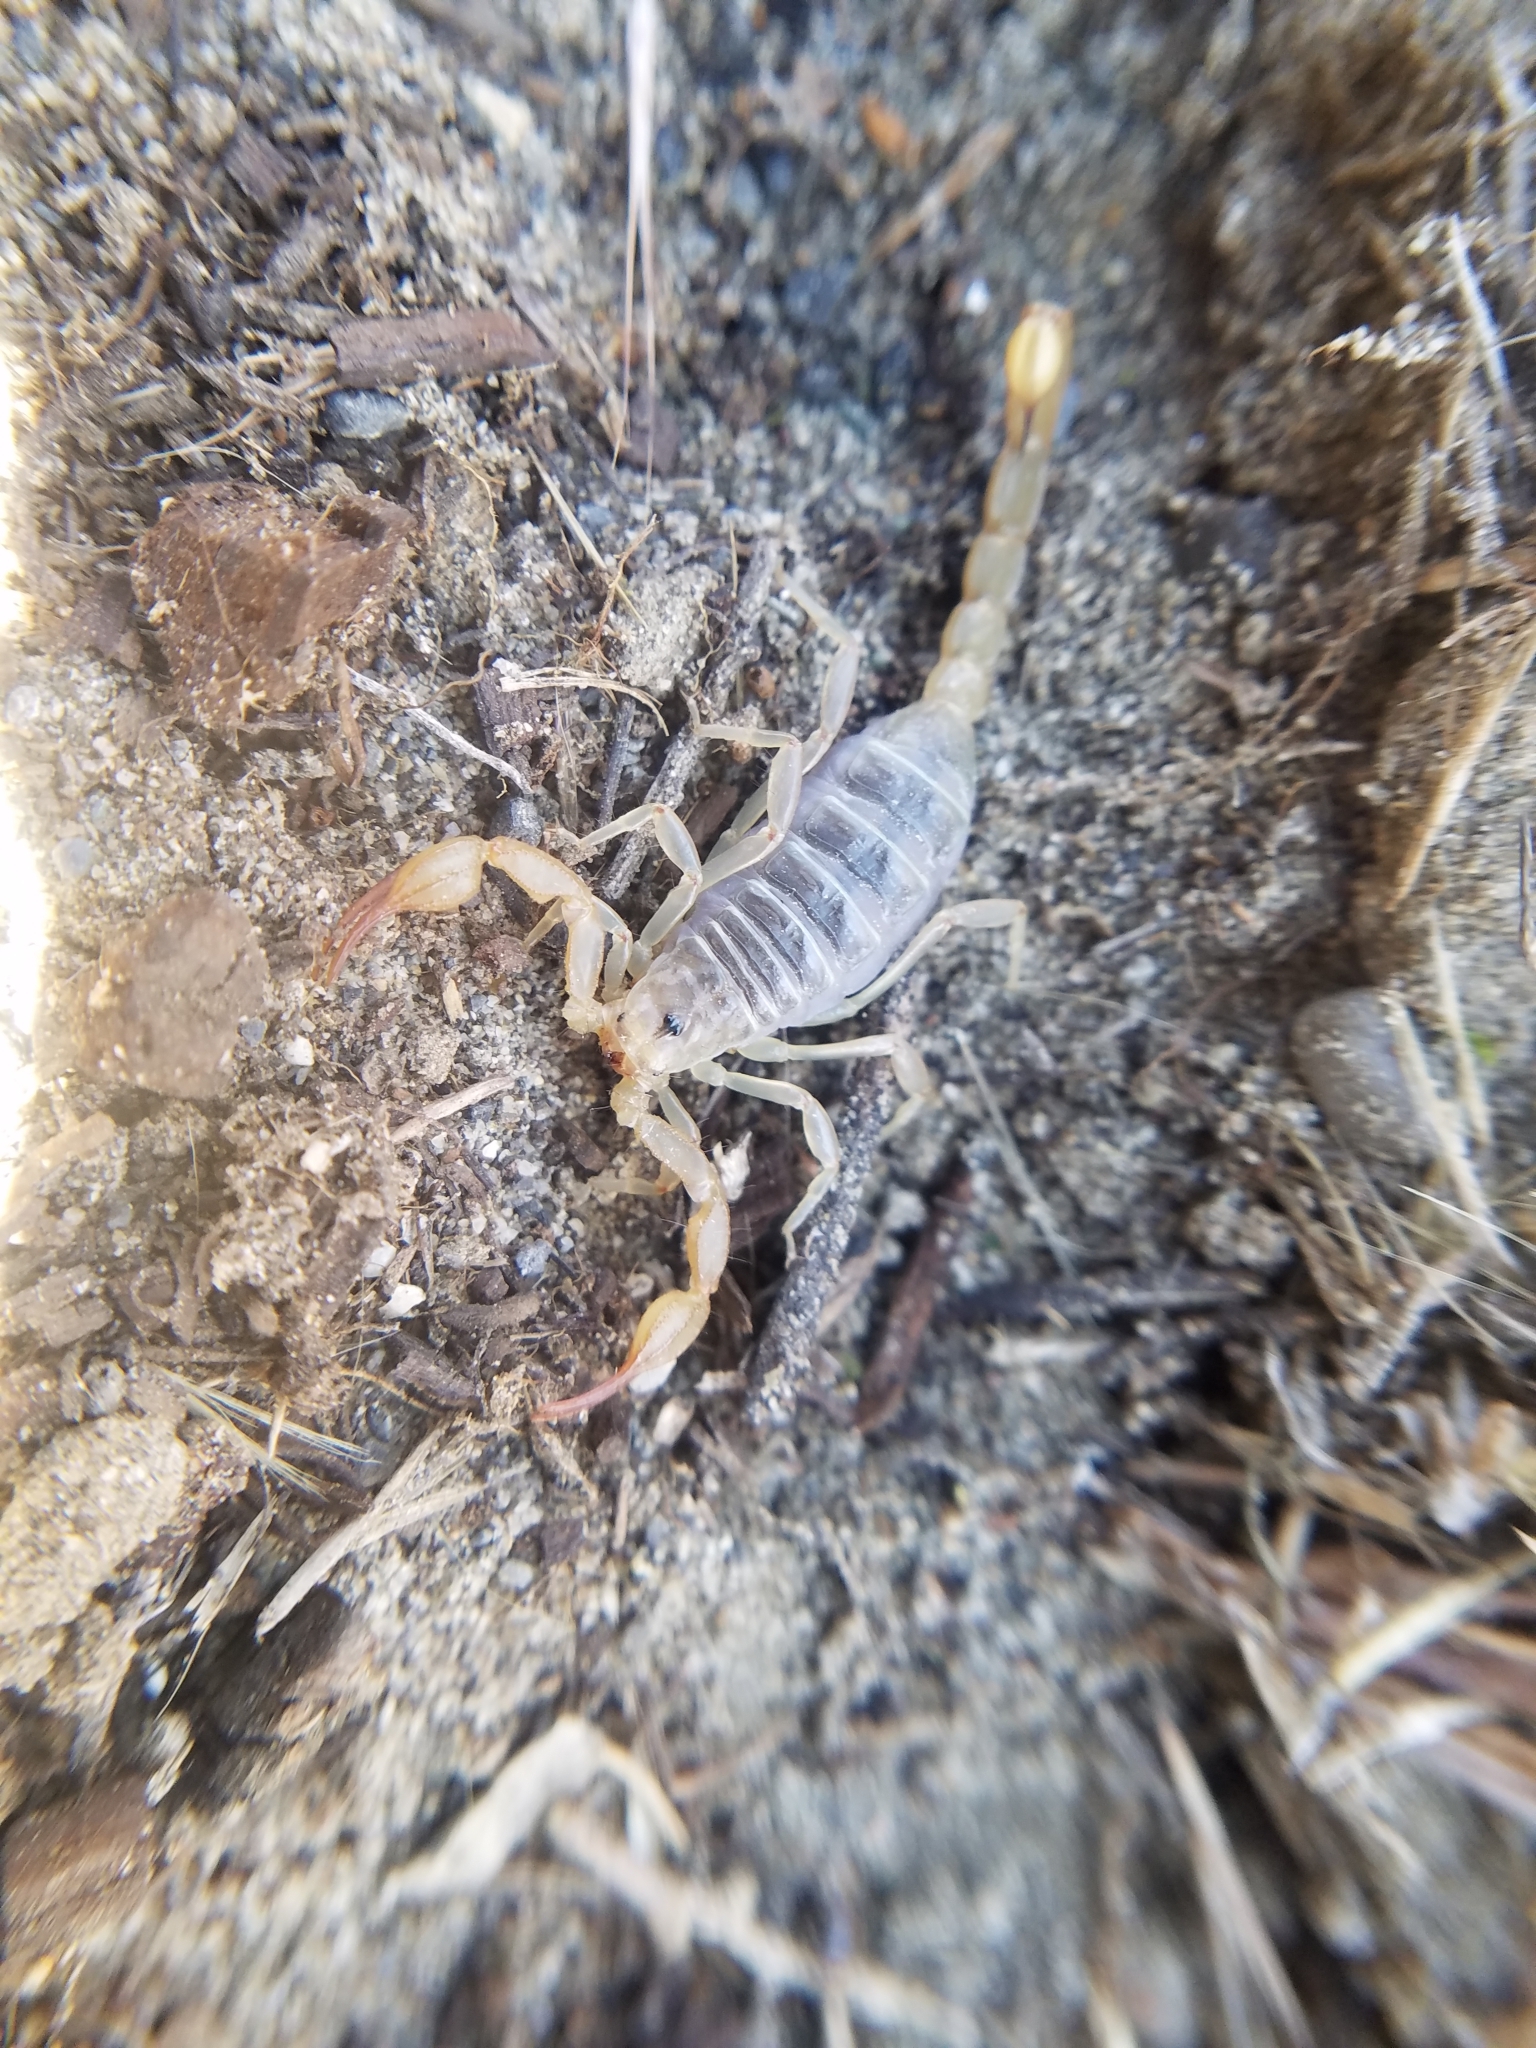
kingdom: Animalia
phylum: Arthropoda
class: Arachnida
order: Scorpiones
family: Vaejovidae
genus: Paruroctonus
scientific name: Paruroctonus boreus
